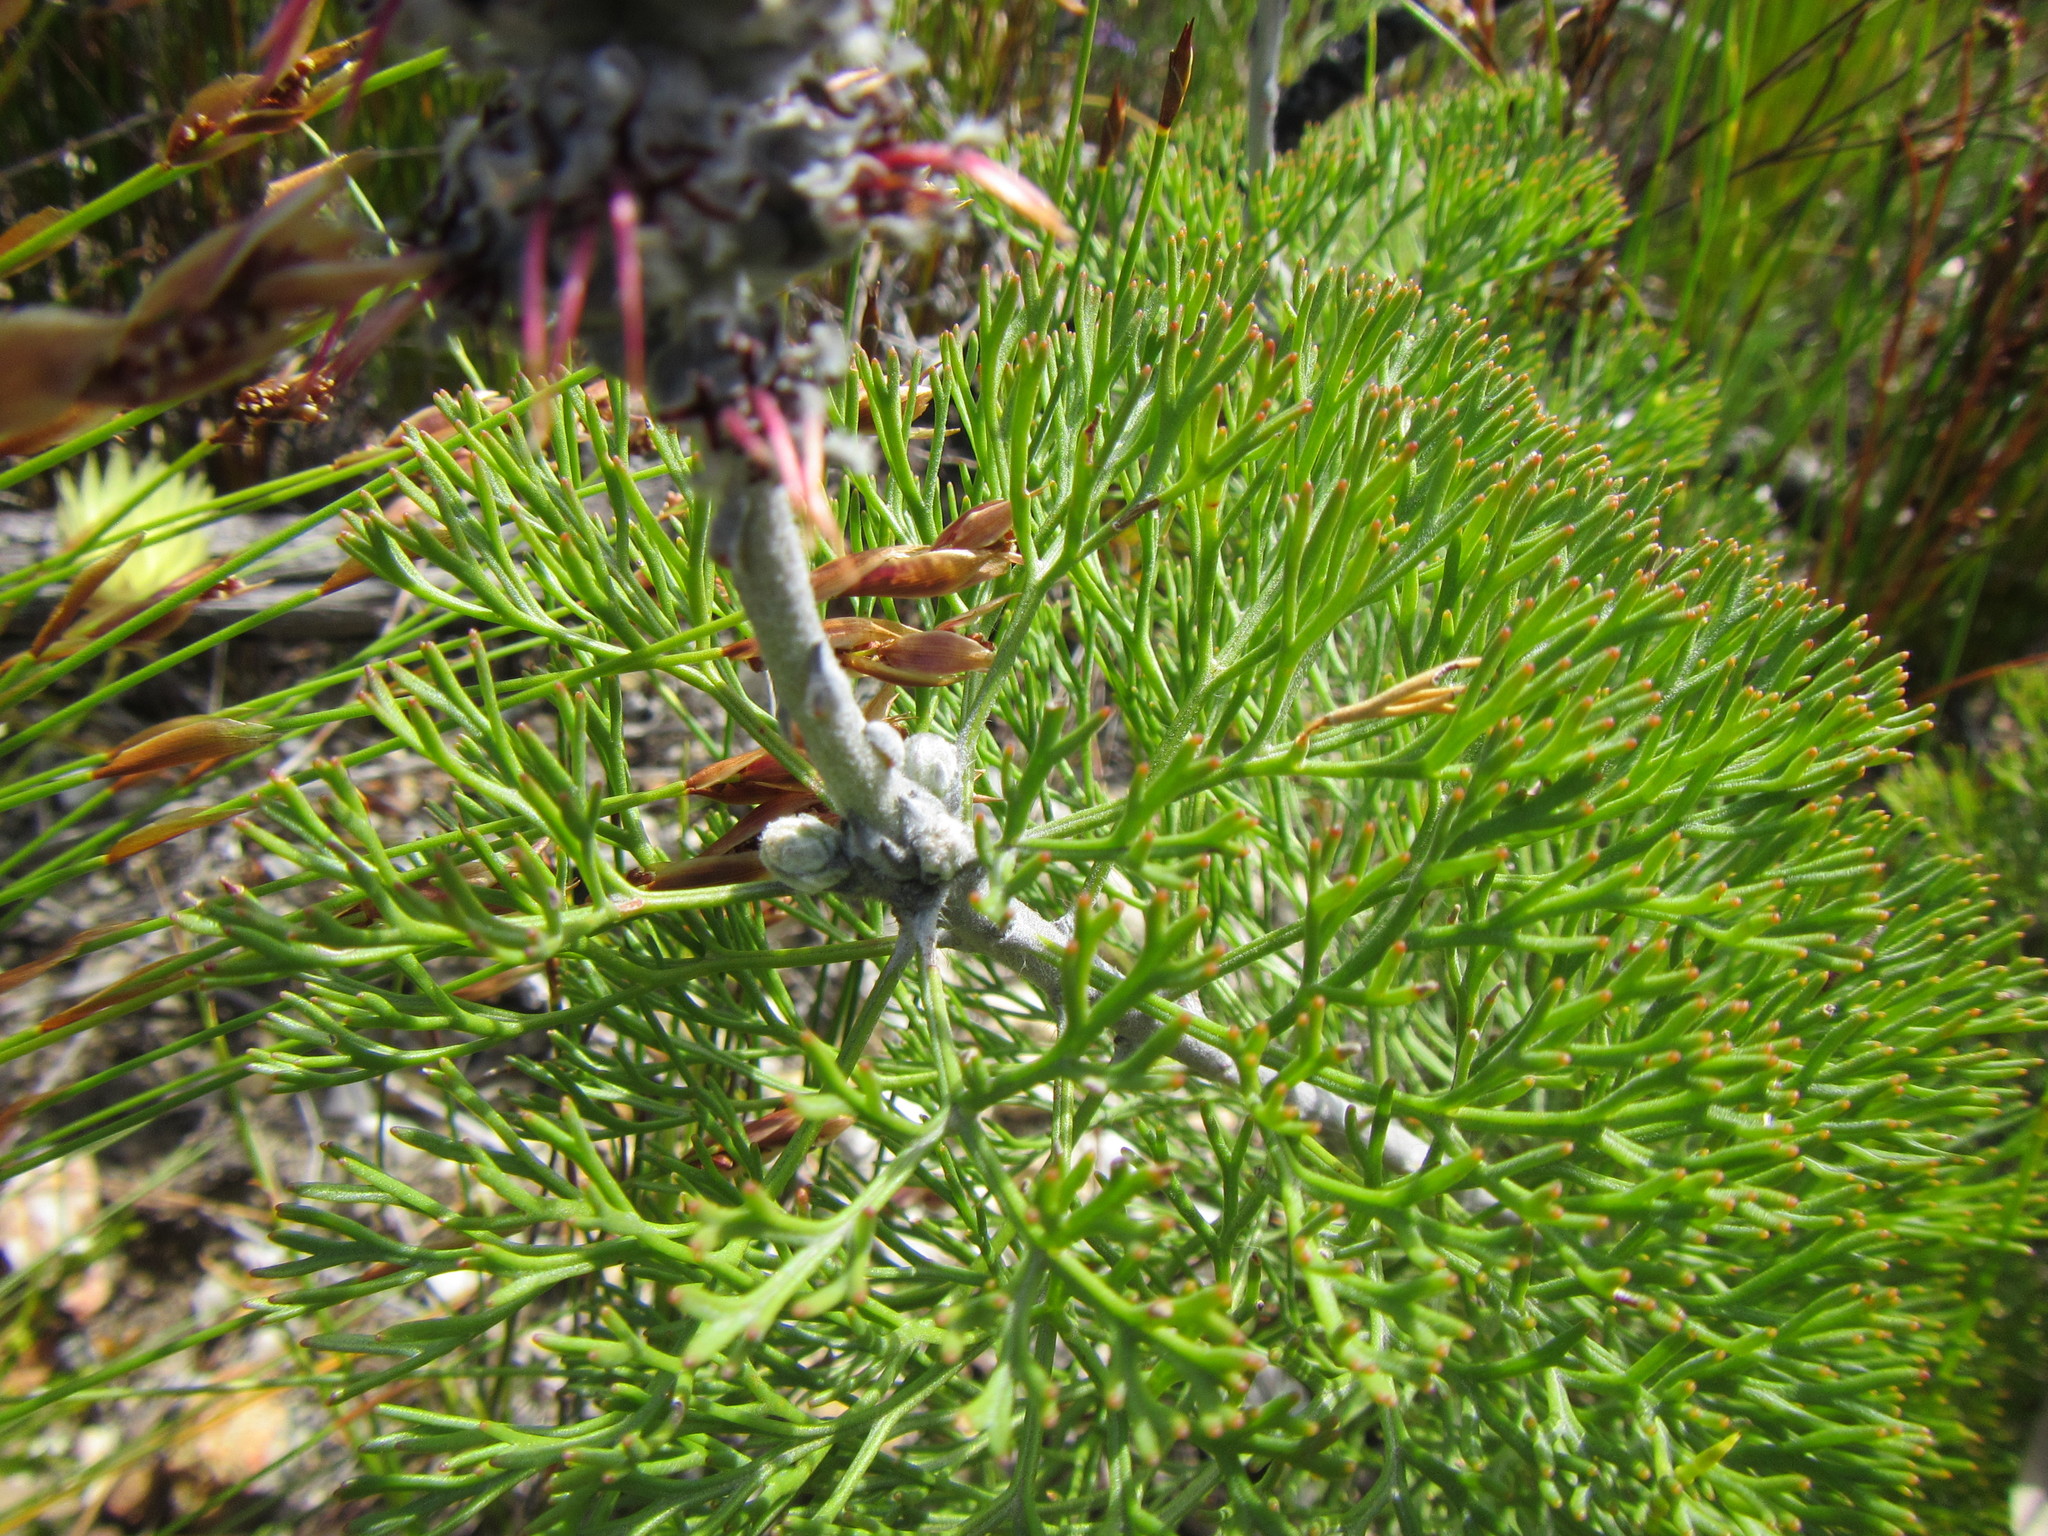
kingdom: Plantae
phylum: Tracheophyta
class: Magnoliopsida
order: Proteales
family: Proteaceae
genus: Paranomus
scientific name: Paranomus bolusii
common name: Overberg sceptre
